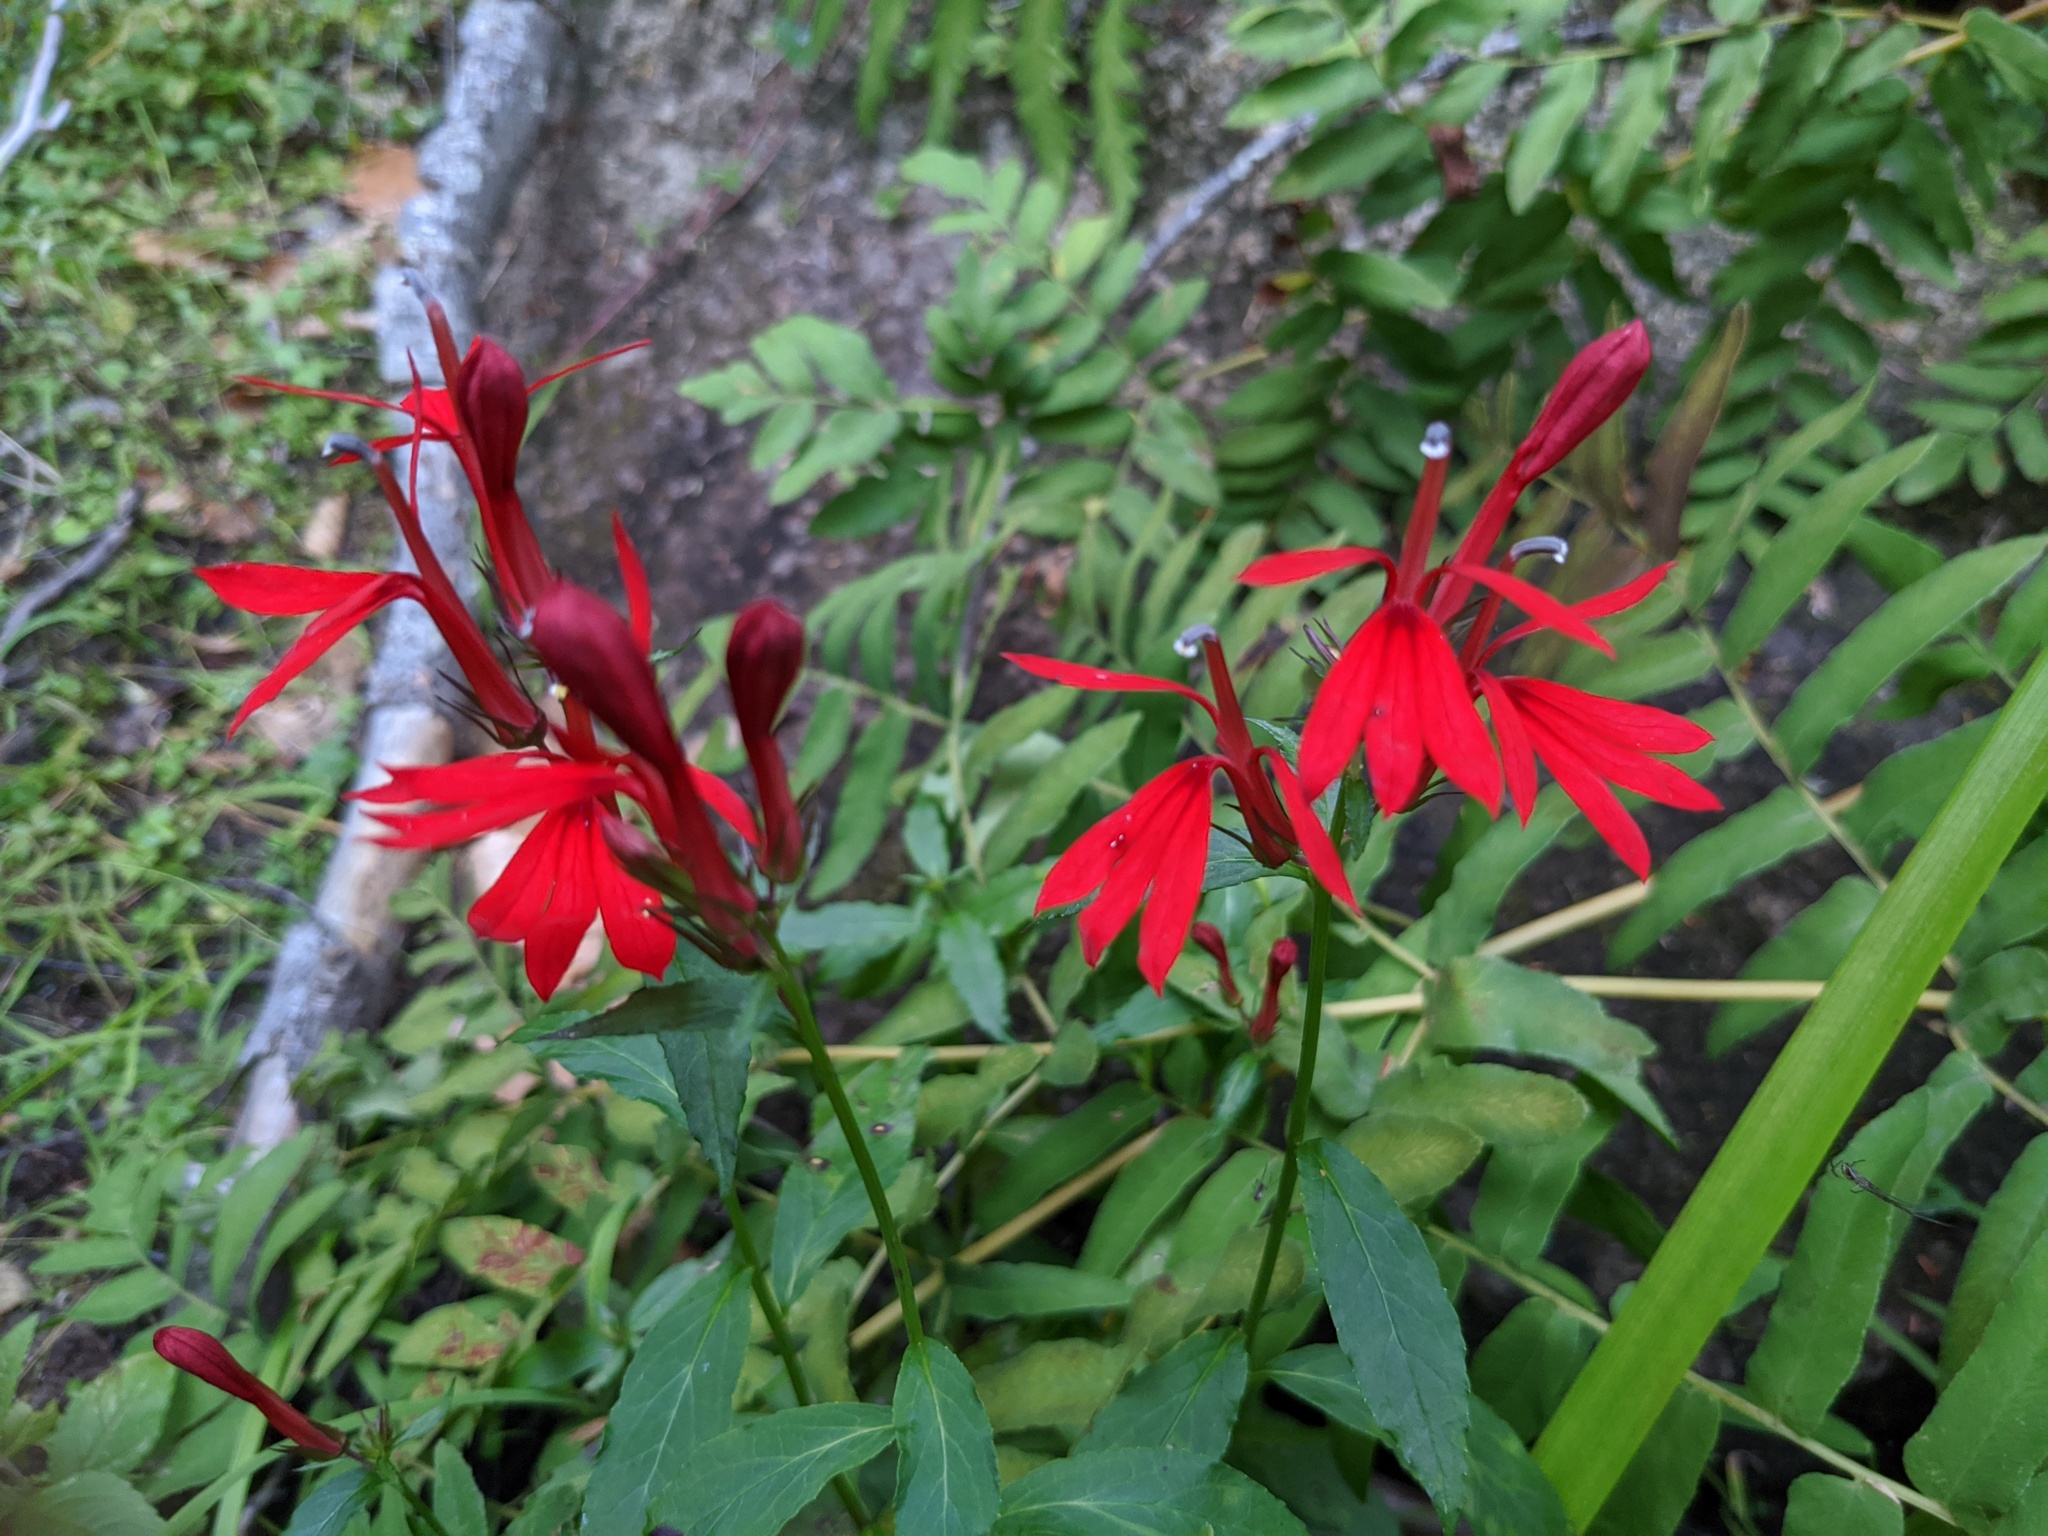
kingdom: Plantae
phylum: Tracheophyta
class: Magnoliopsida
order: Asterales
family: Campanulaceae
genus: Lobelia
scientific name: Lobelia cardinalis
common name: Cardinal flower
